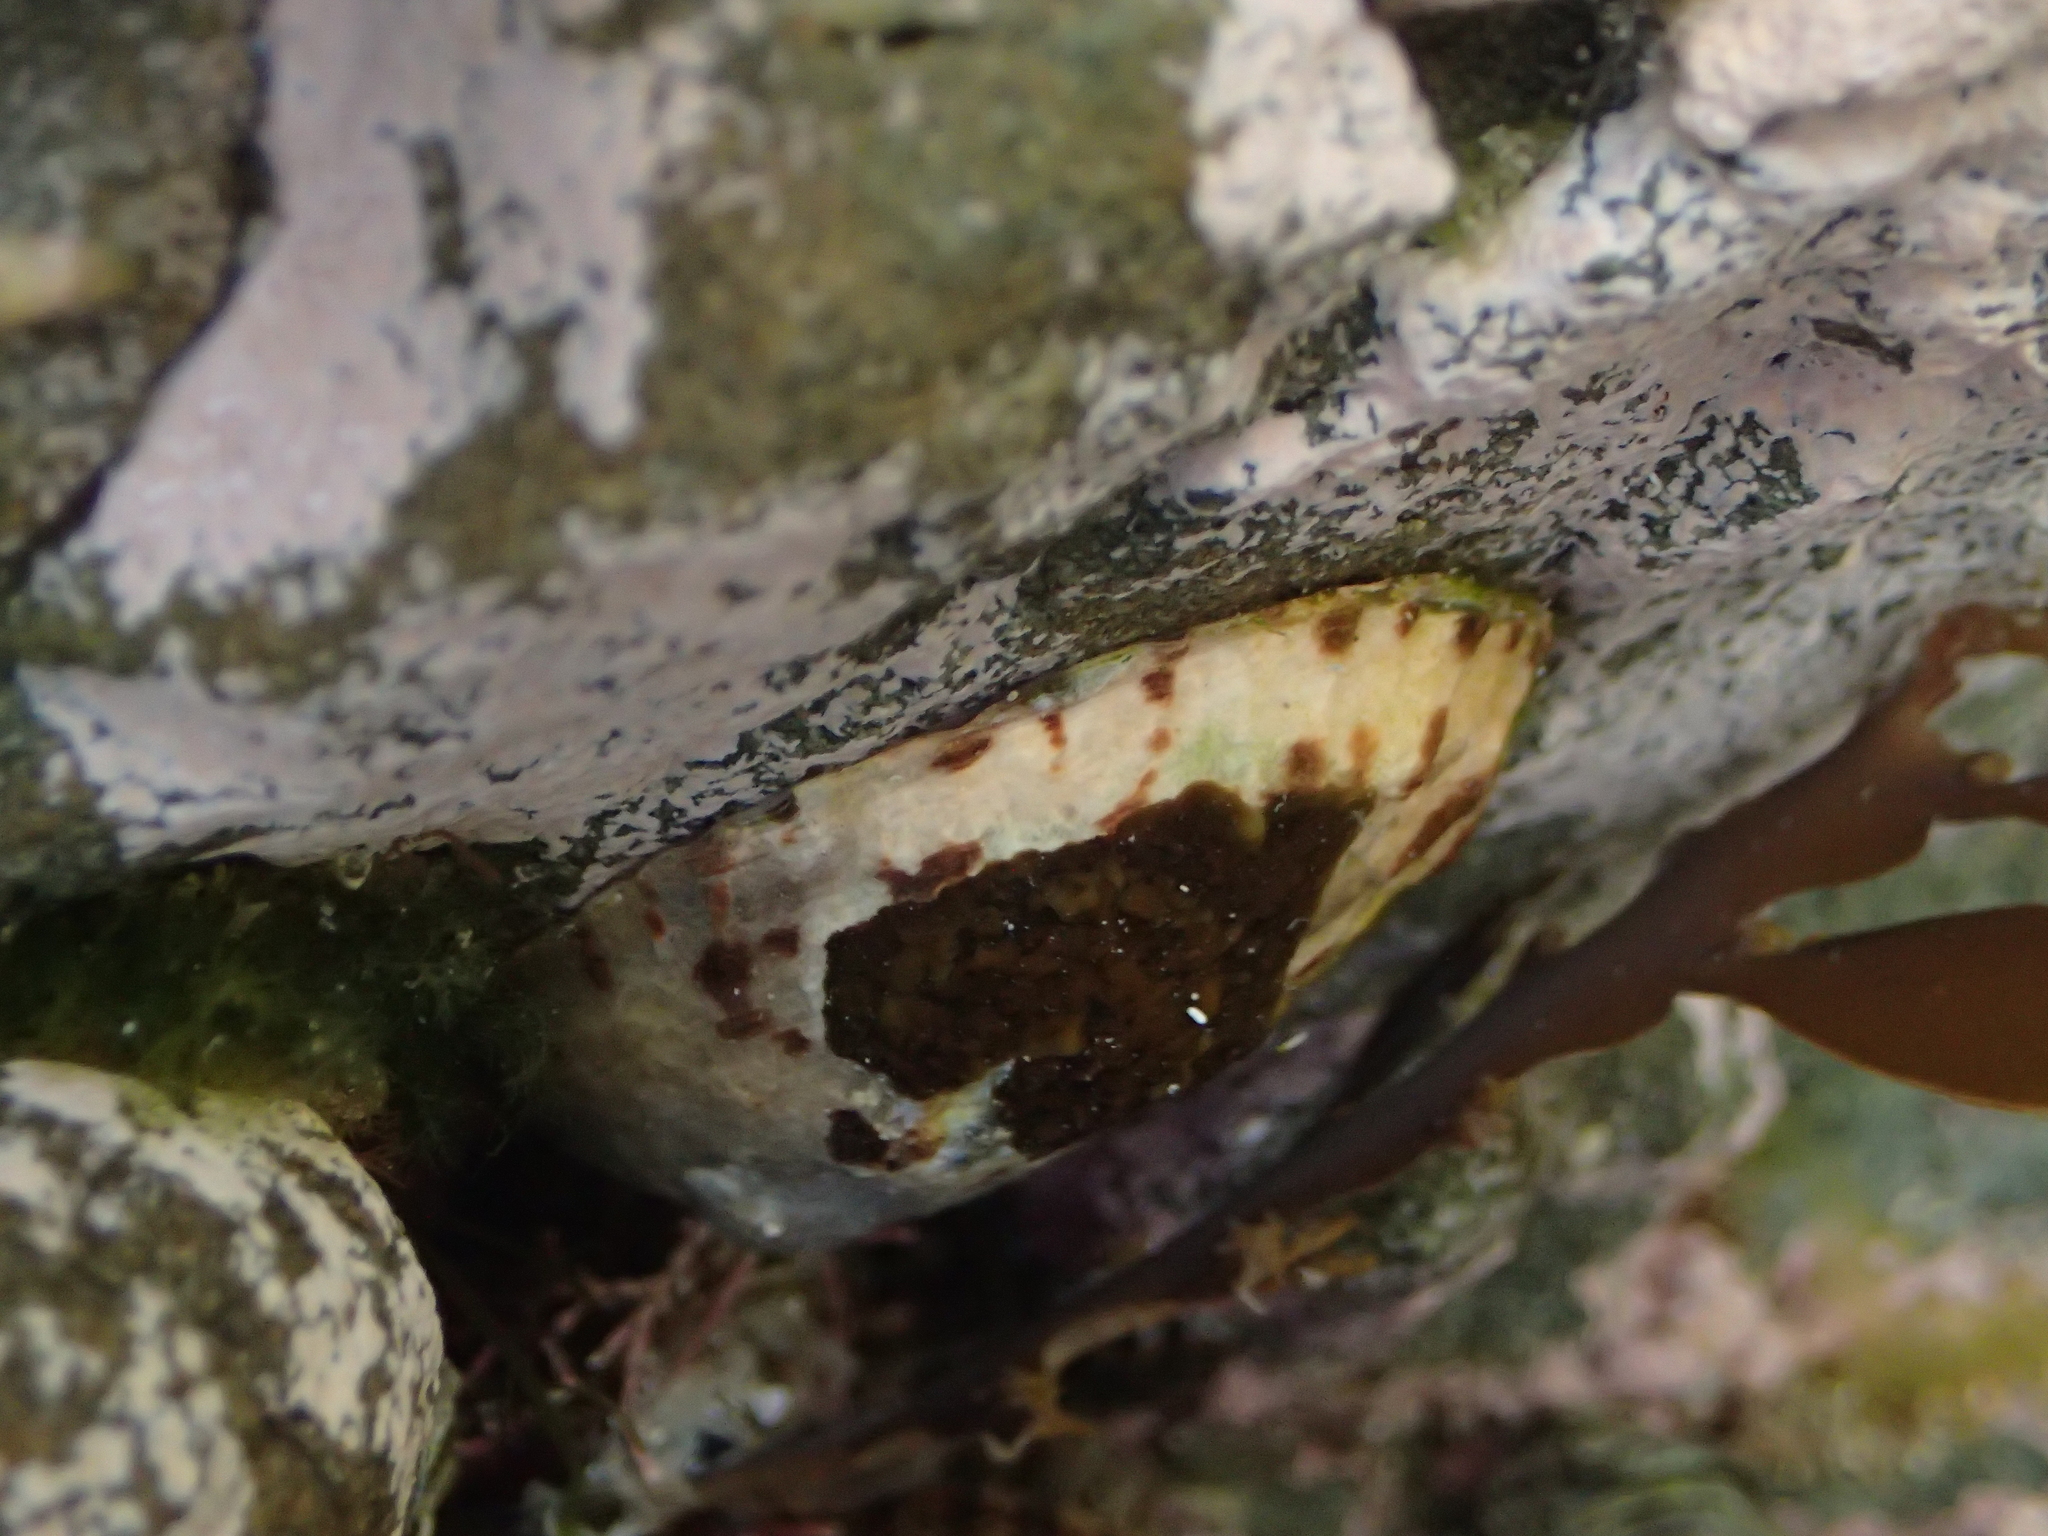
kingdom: Animalia
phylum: Mollusca
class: Gastropoda
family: Nacellidae
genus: Cellana
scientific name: Cellana radians
